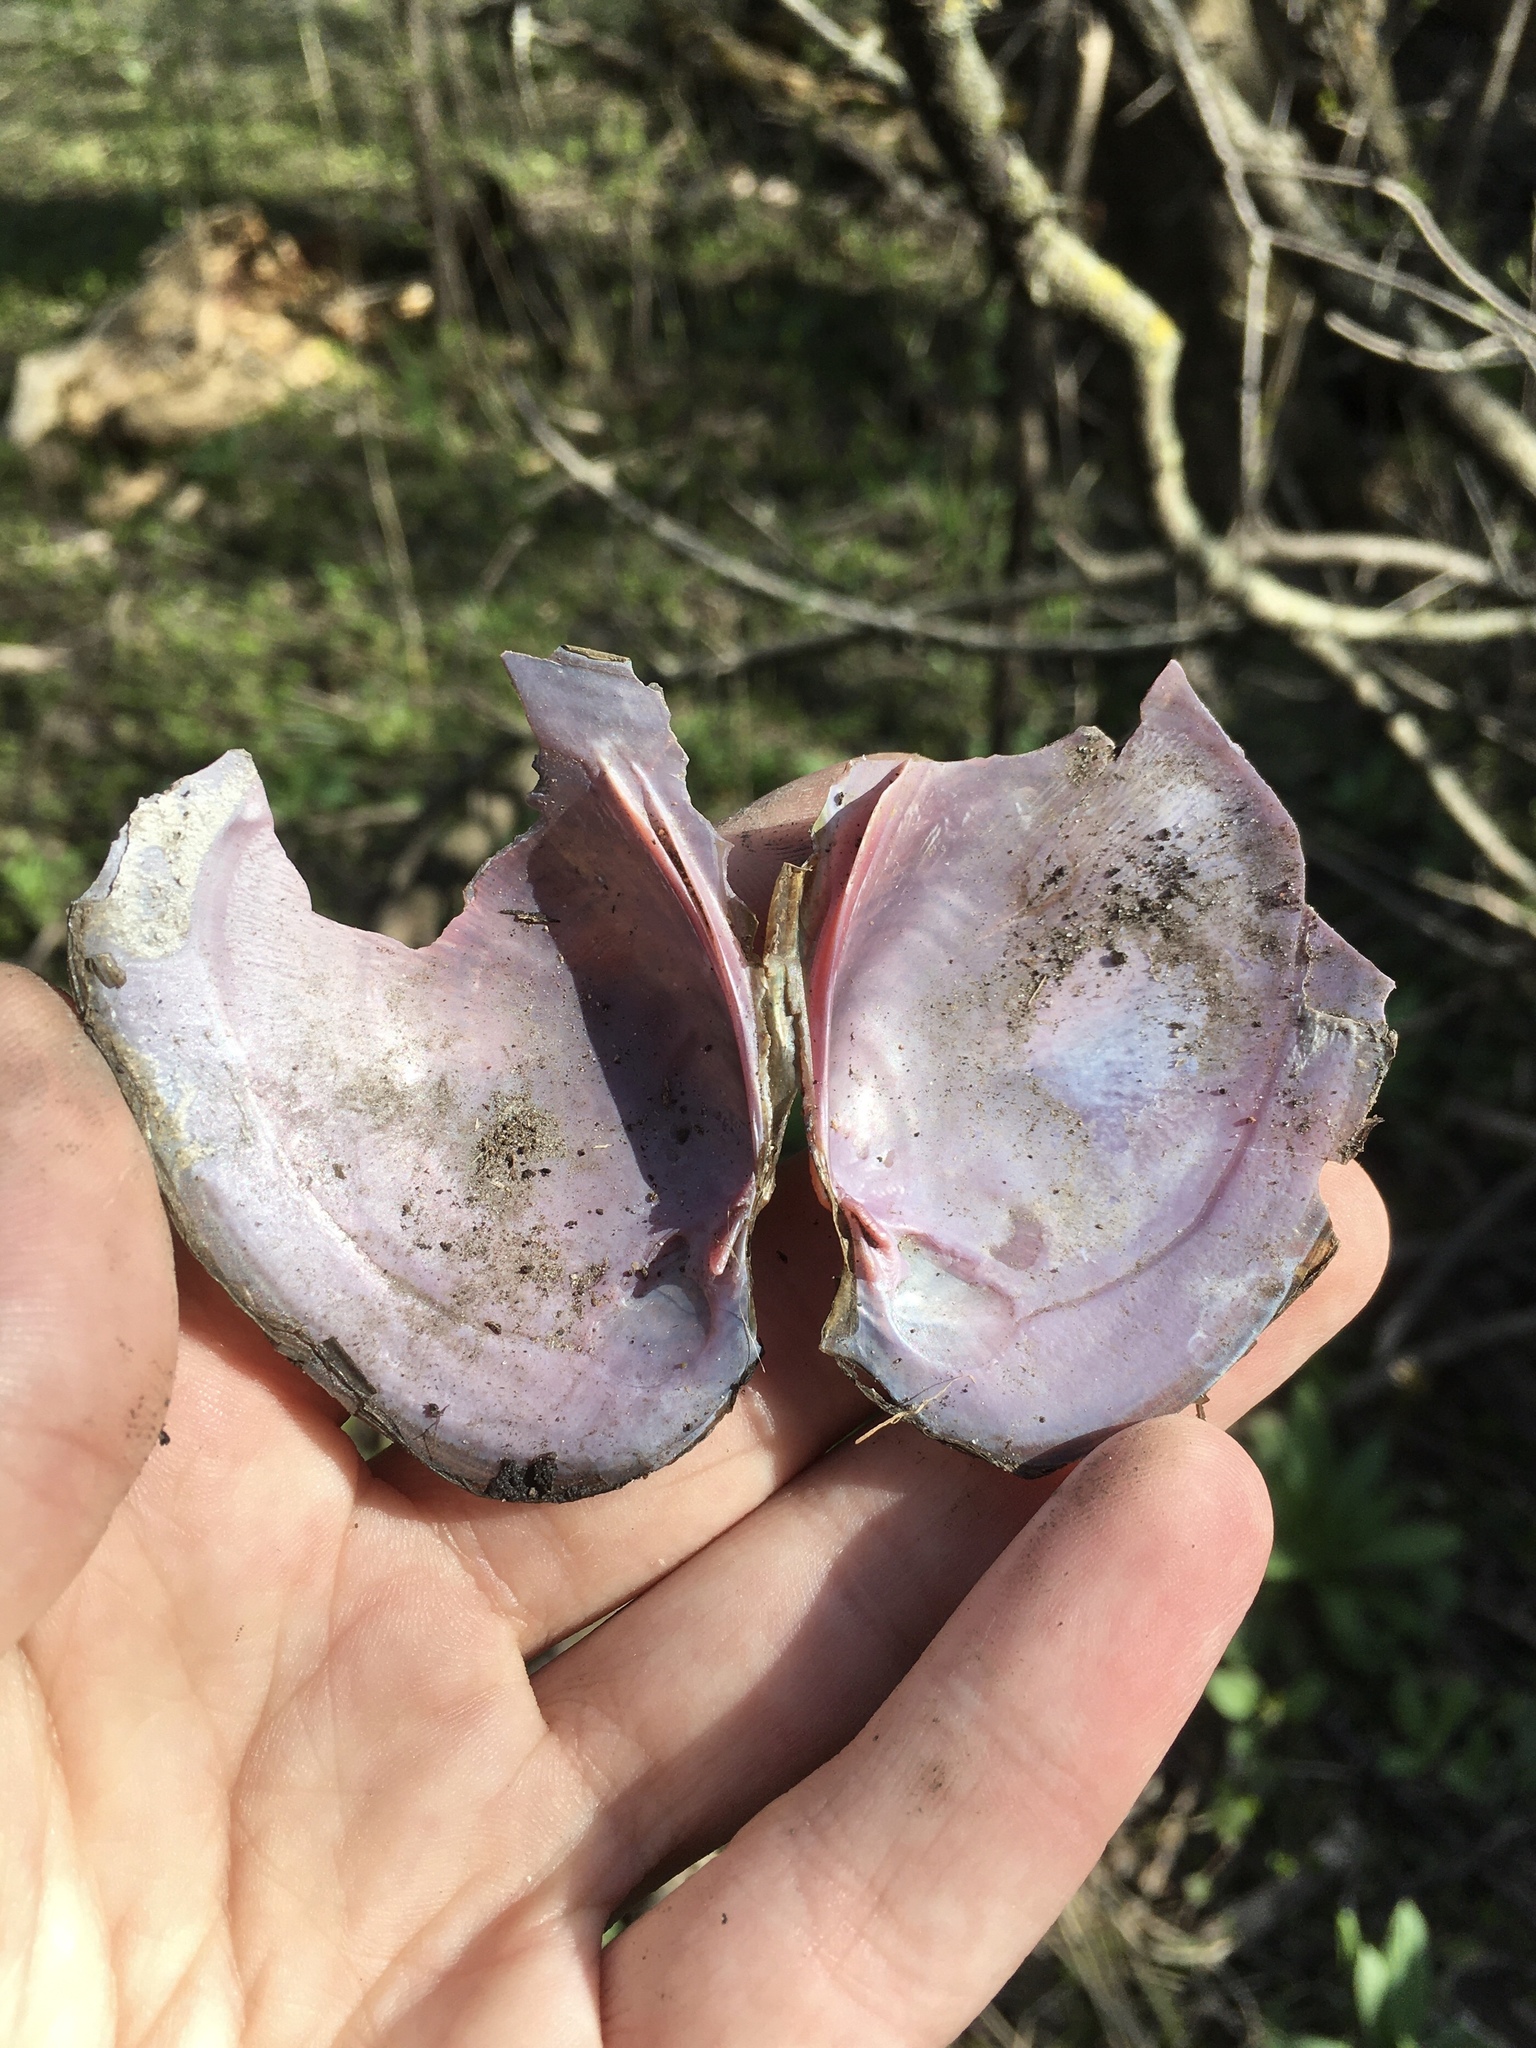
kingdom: Animalia
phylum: Mollusca
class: Bivalvia
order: Unionida
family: Unionidae
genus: Potamilus
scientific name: Potamilus alatus
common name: Pink heelsplitter
